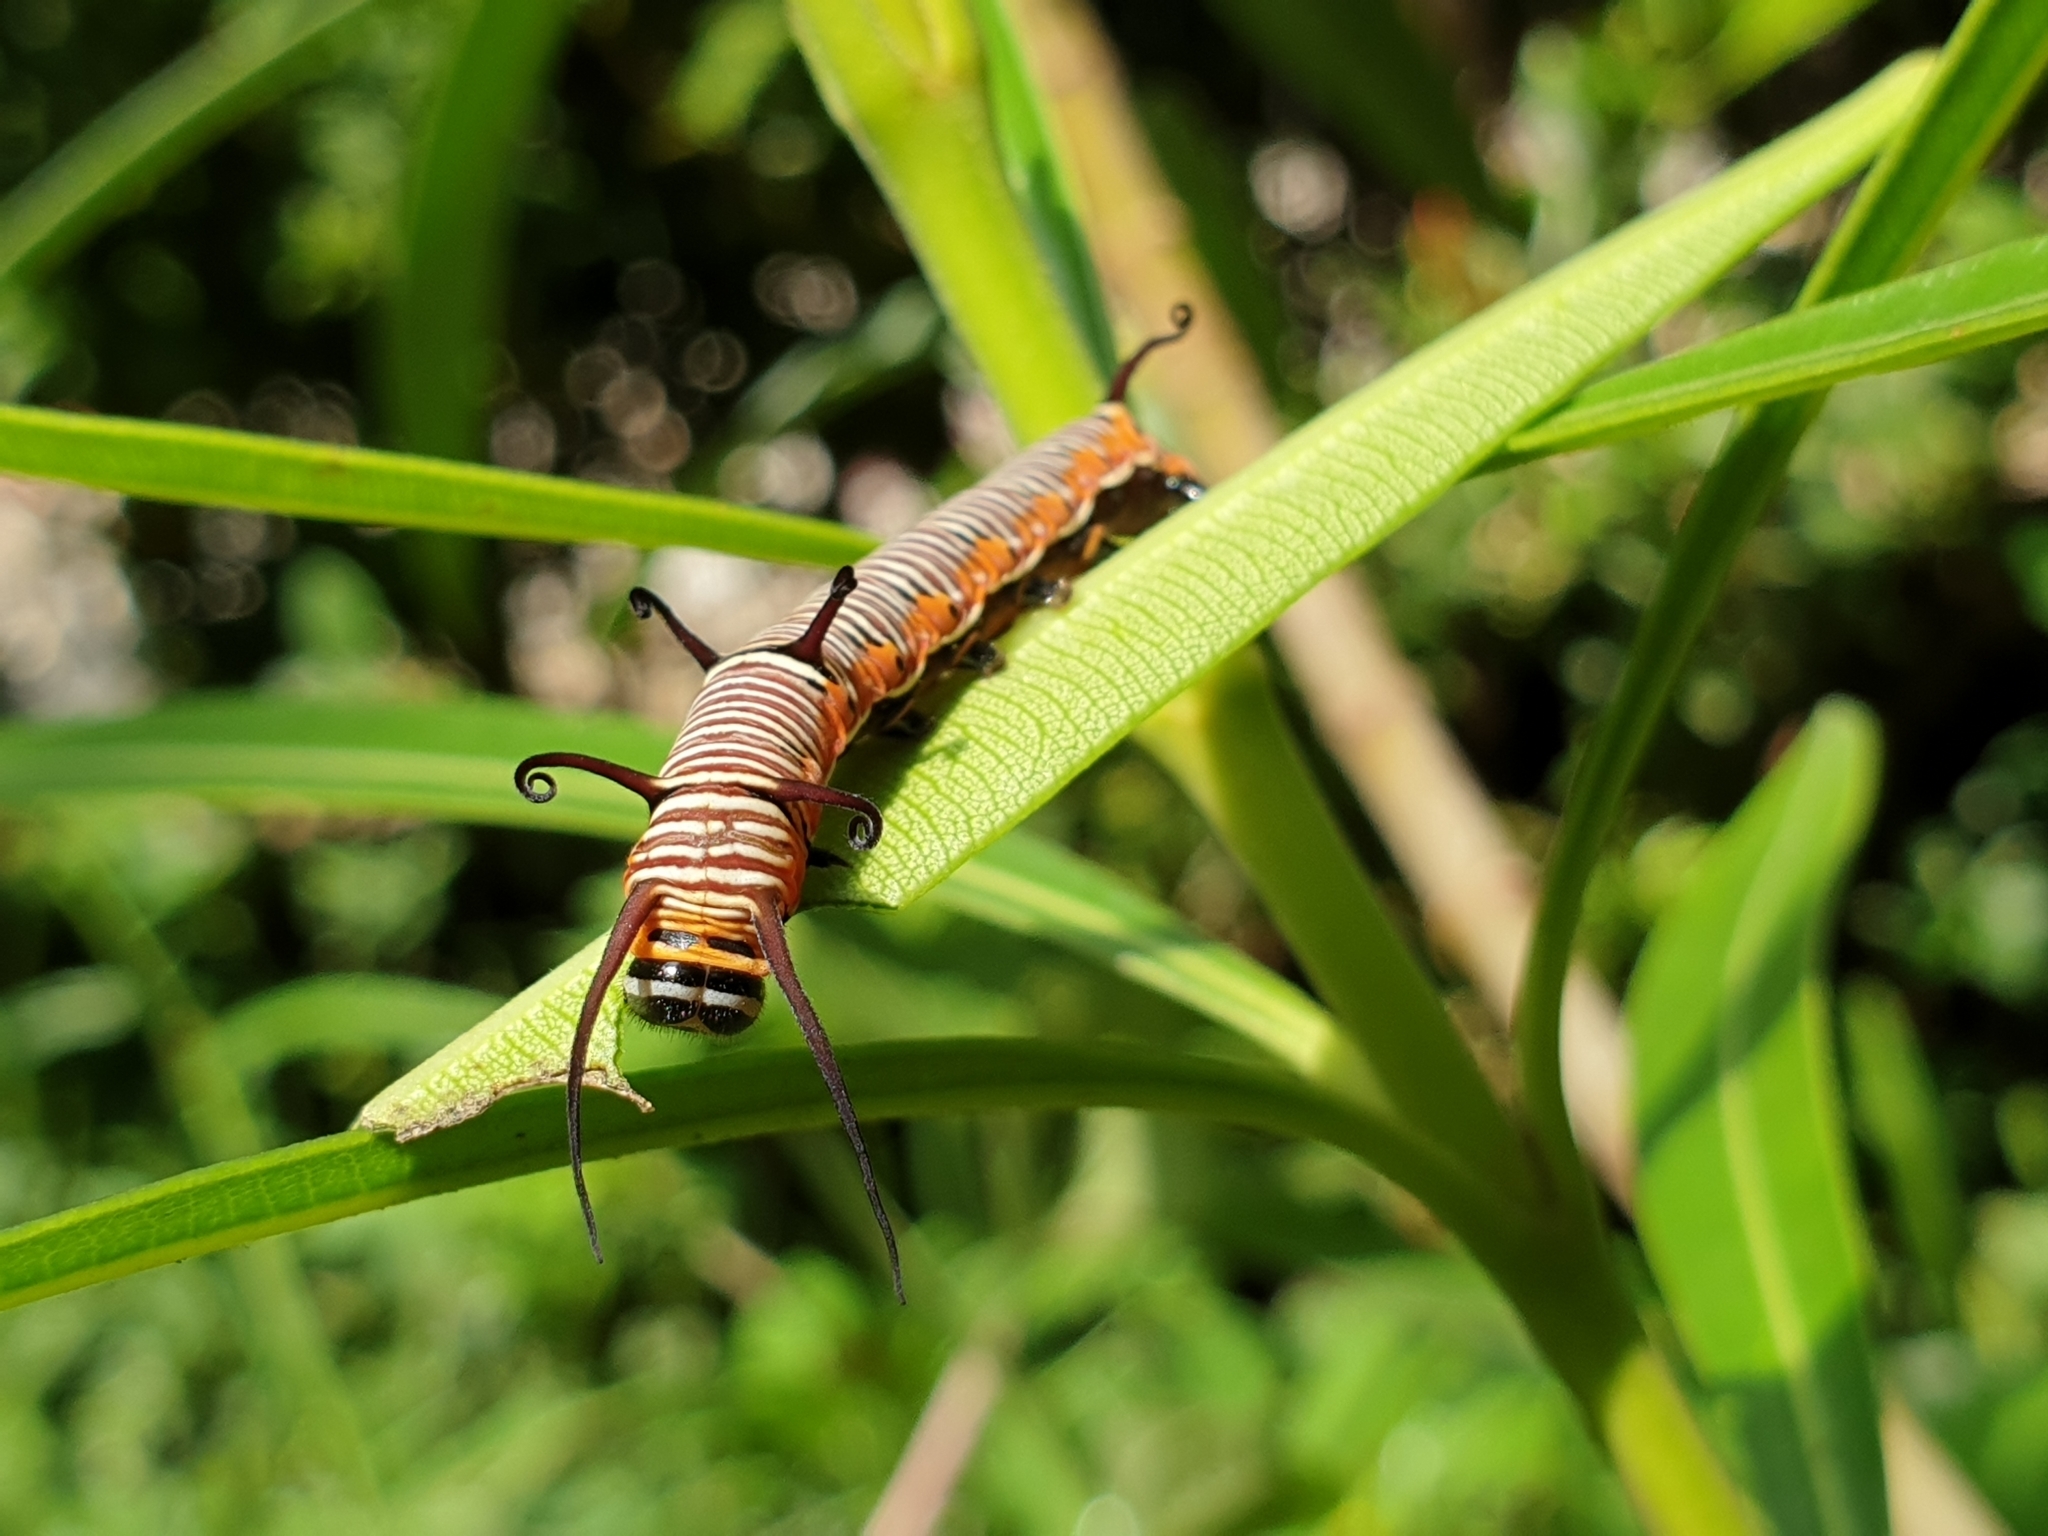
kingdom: Animalia
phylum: Arthropoda
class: Insecta
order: Lepidoptera
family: Nymphalidae
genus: Euploea
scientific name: Euploea core
